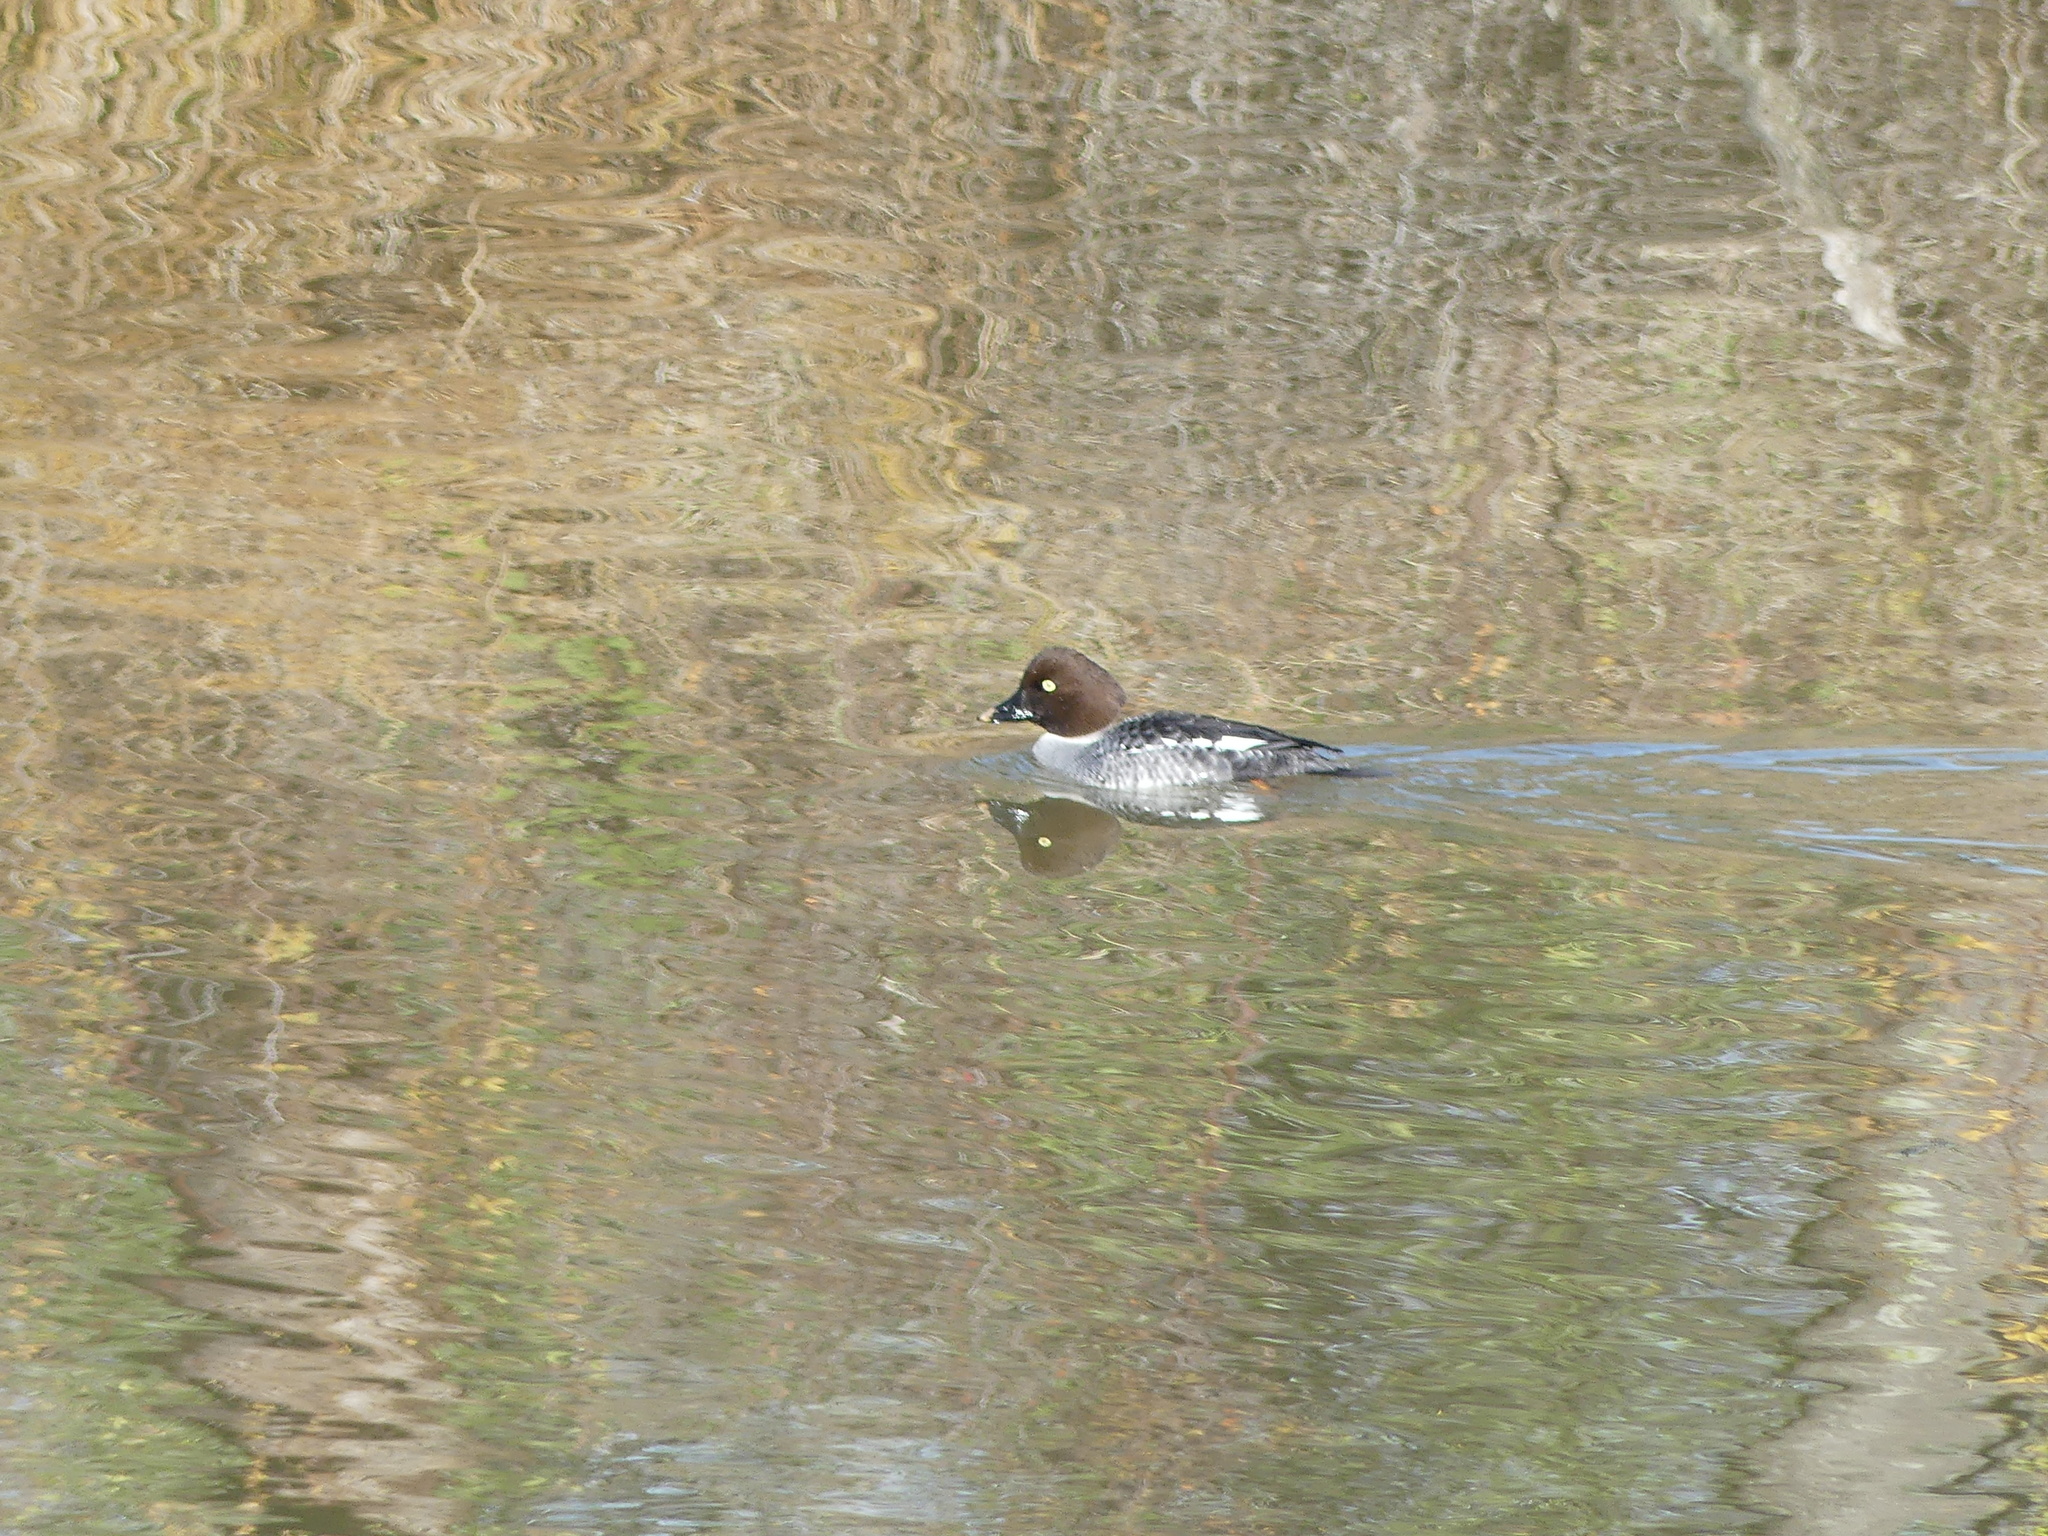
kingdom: Animalia
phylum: Chordata
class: Aves
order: Anseriformes
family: Anatidae
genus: Bucephala
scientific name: Bucephala clangula
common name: Common goldeneye
